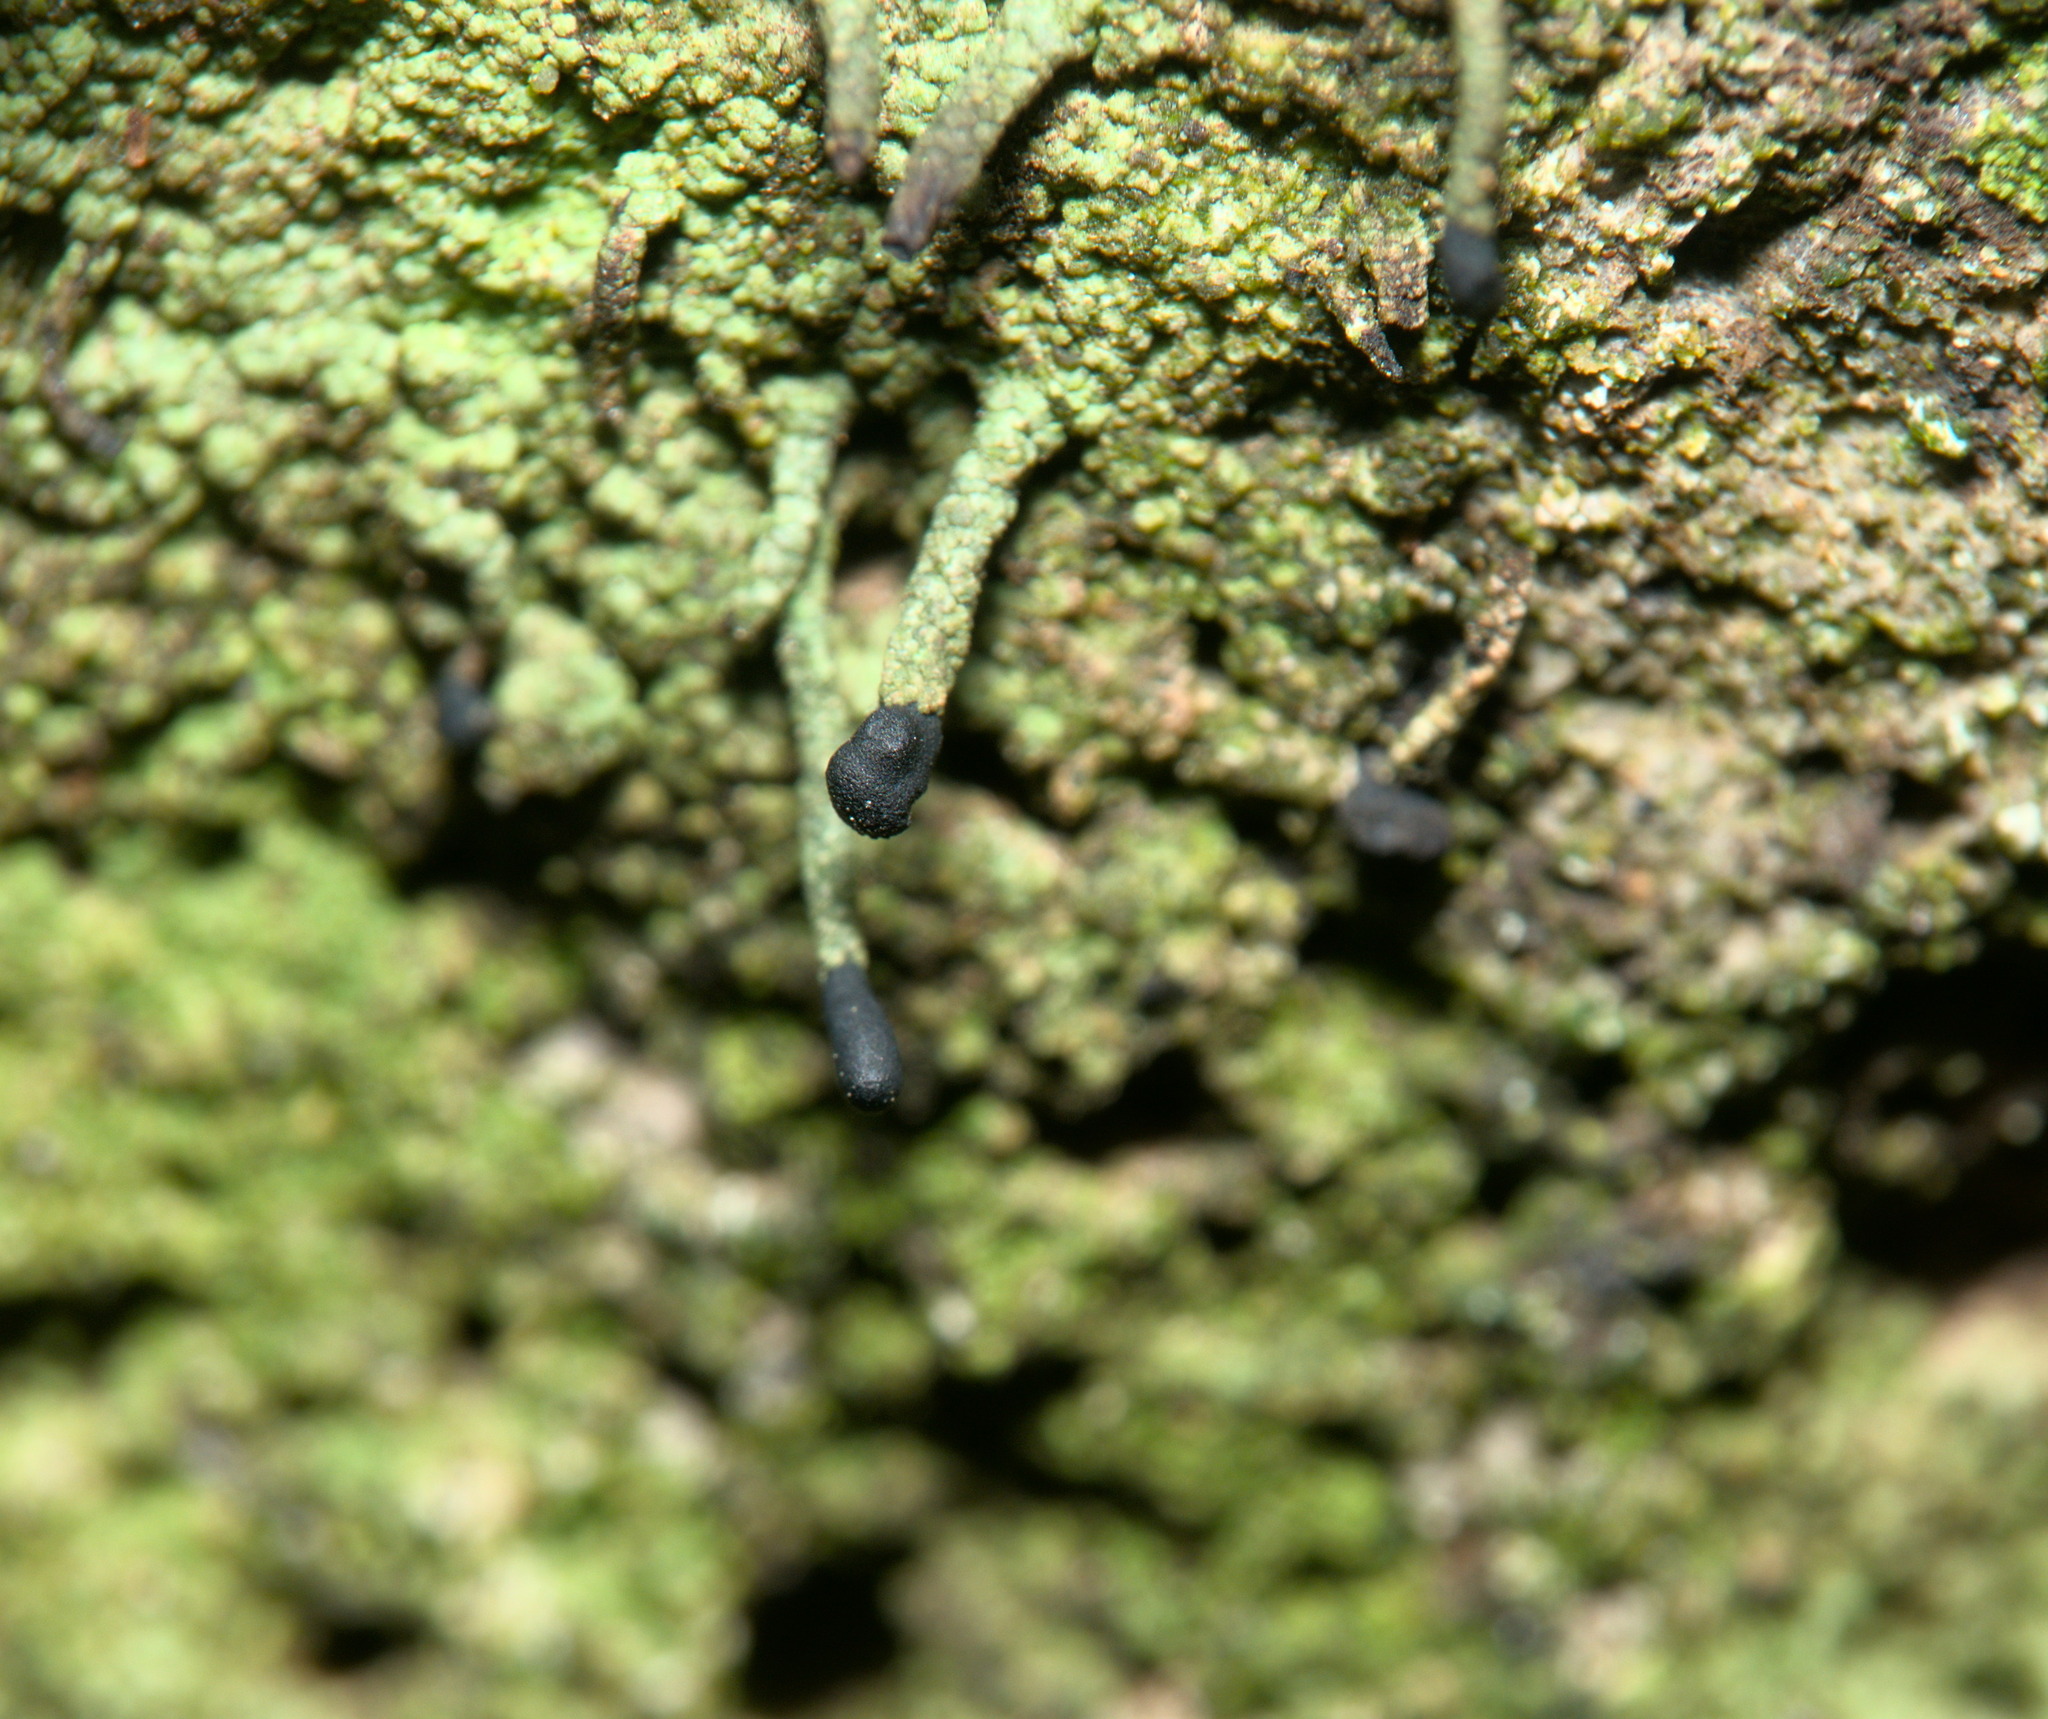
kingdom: Fungi
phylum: Ascomycota
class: Lecanoromycetes
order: Lecanorales
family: Cladoniaceae
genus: Pilophorus
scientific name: Pilophorus clavatus
